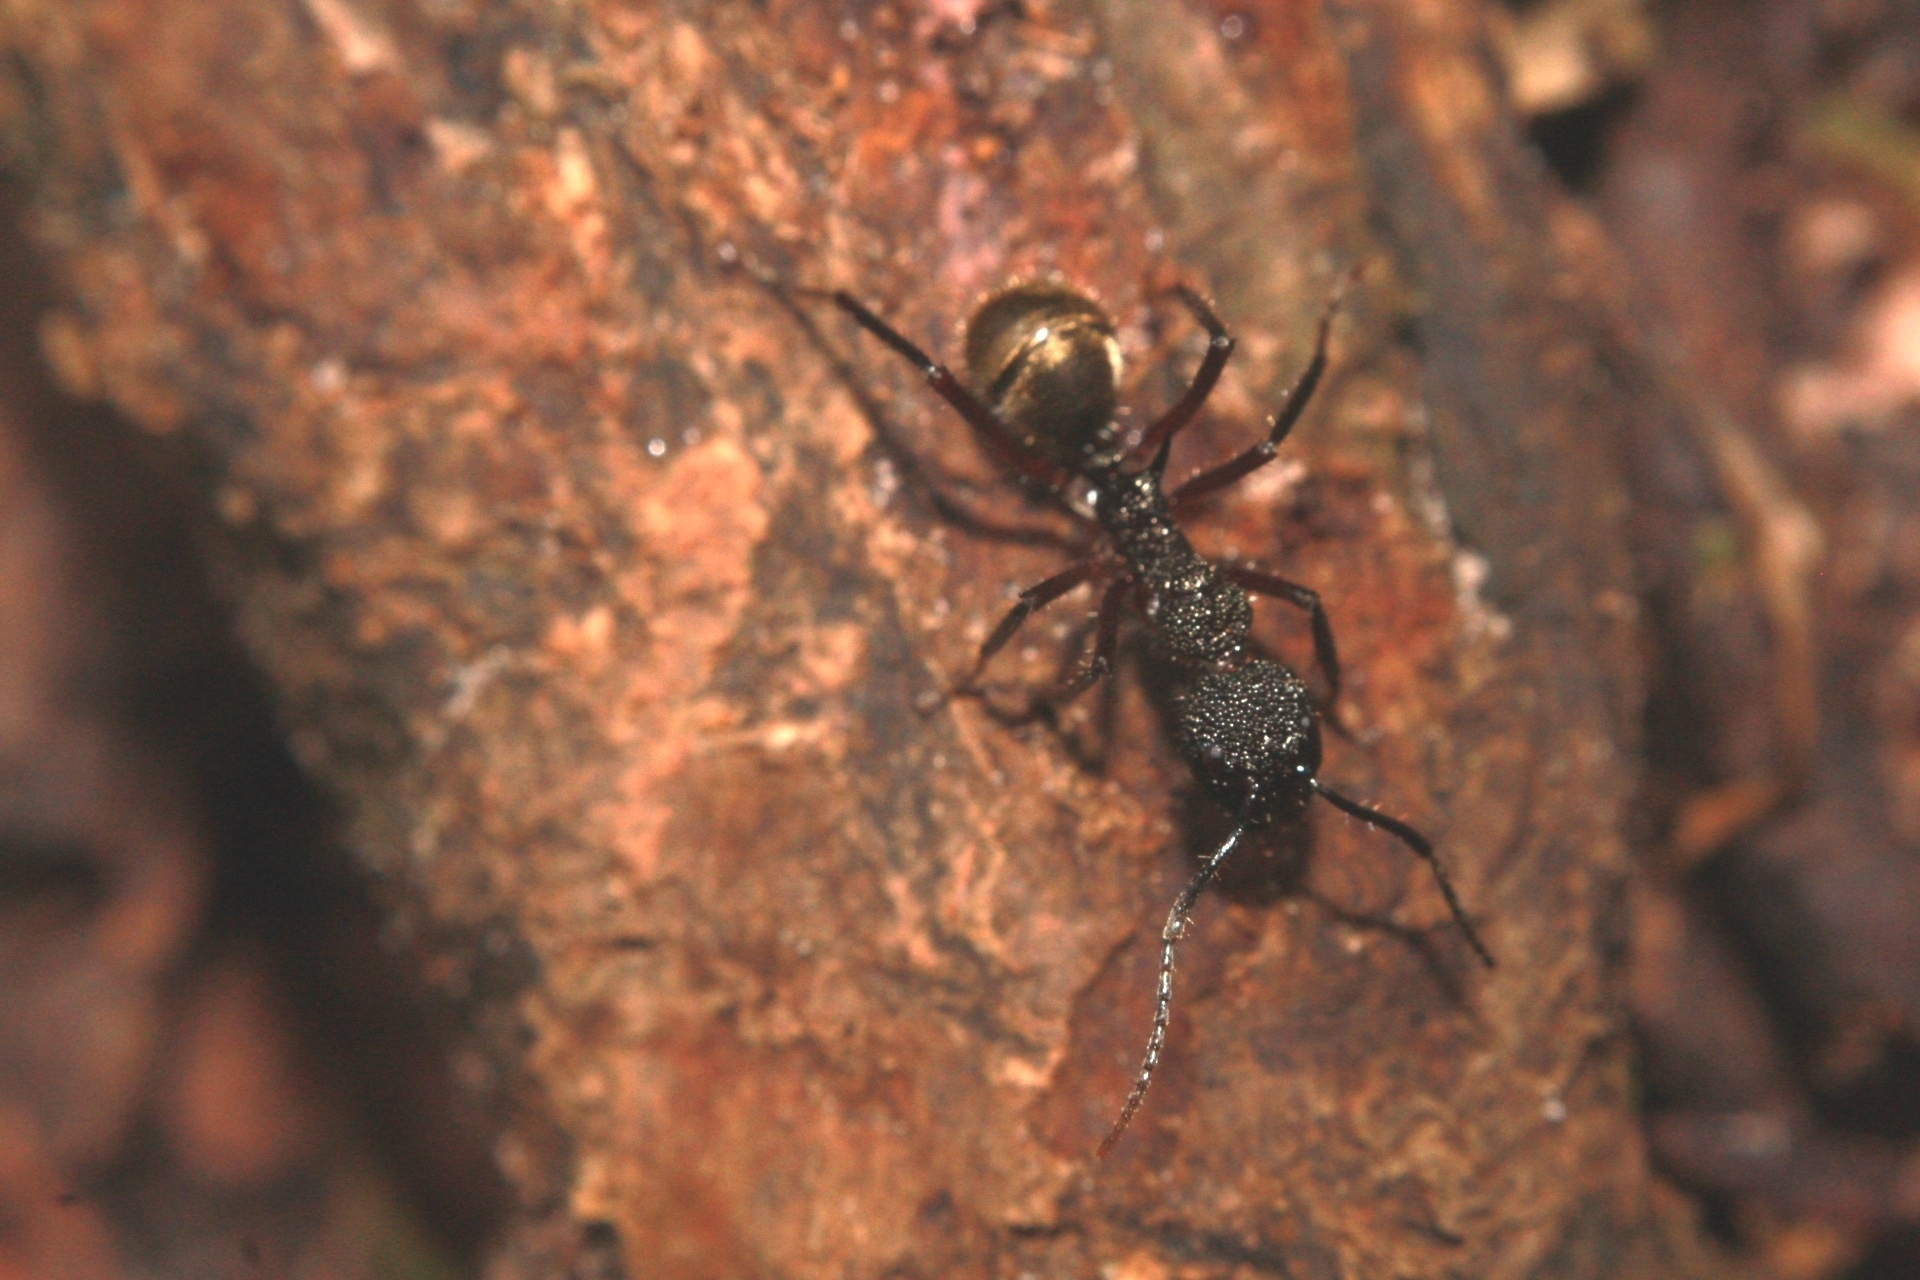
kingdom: Animalia
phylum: Arthropoda
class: Insecta
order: Hymenoptera
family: Formicidae
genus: Dolichoderus
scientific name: Dolichoderus decollatus
